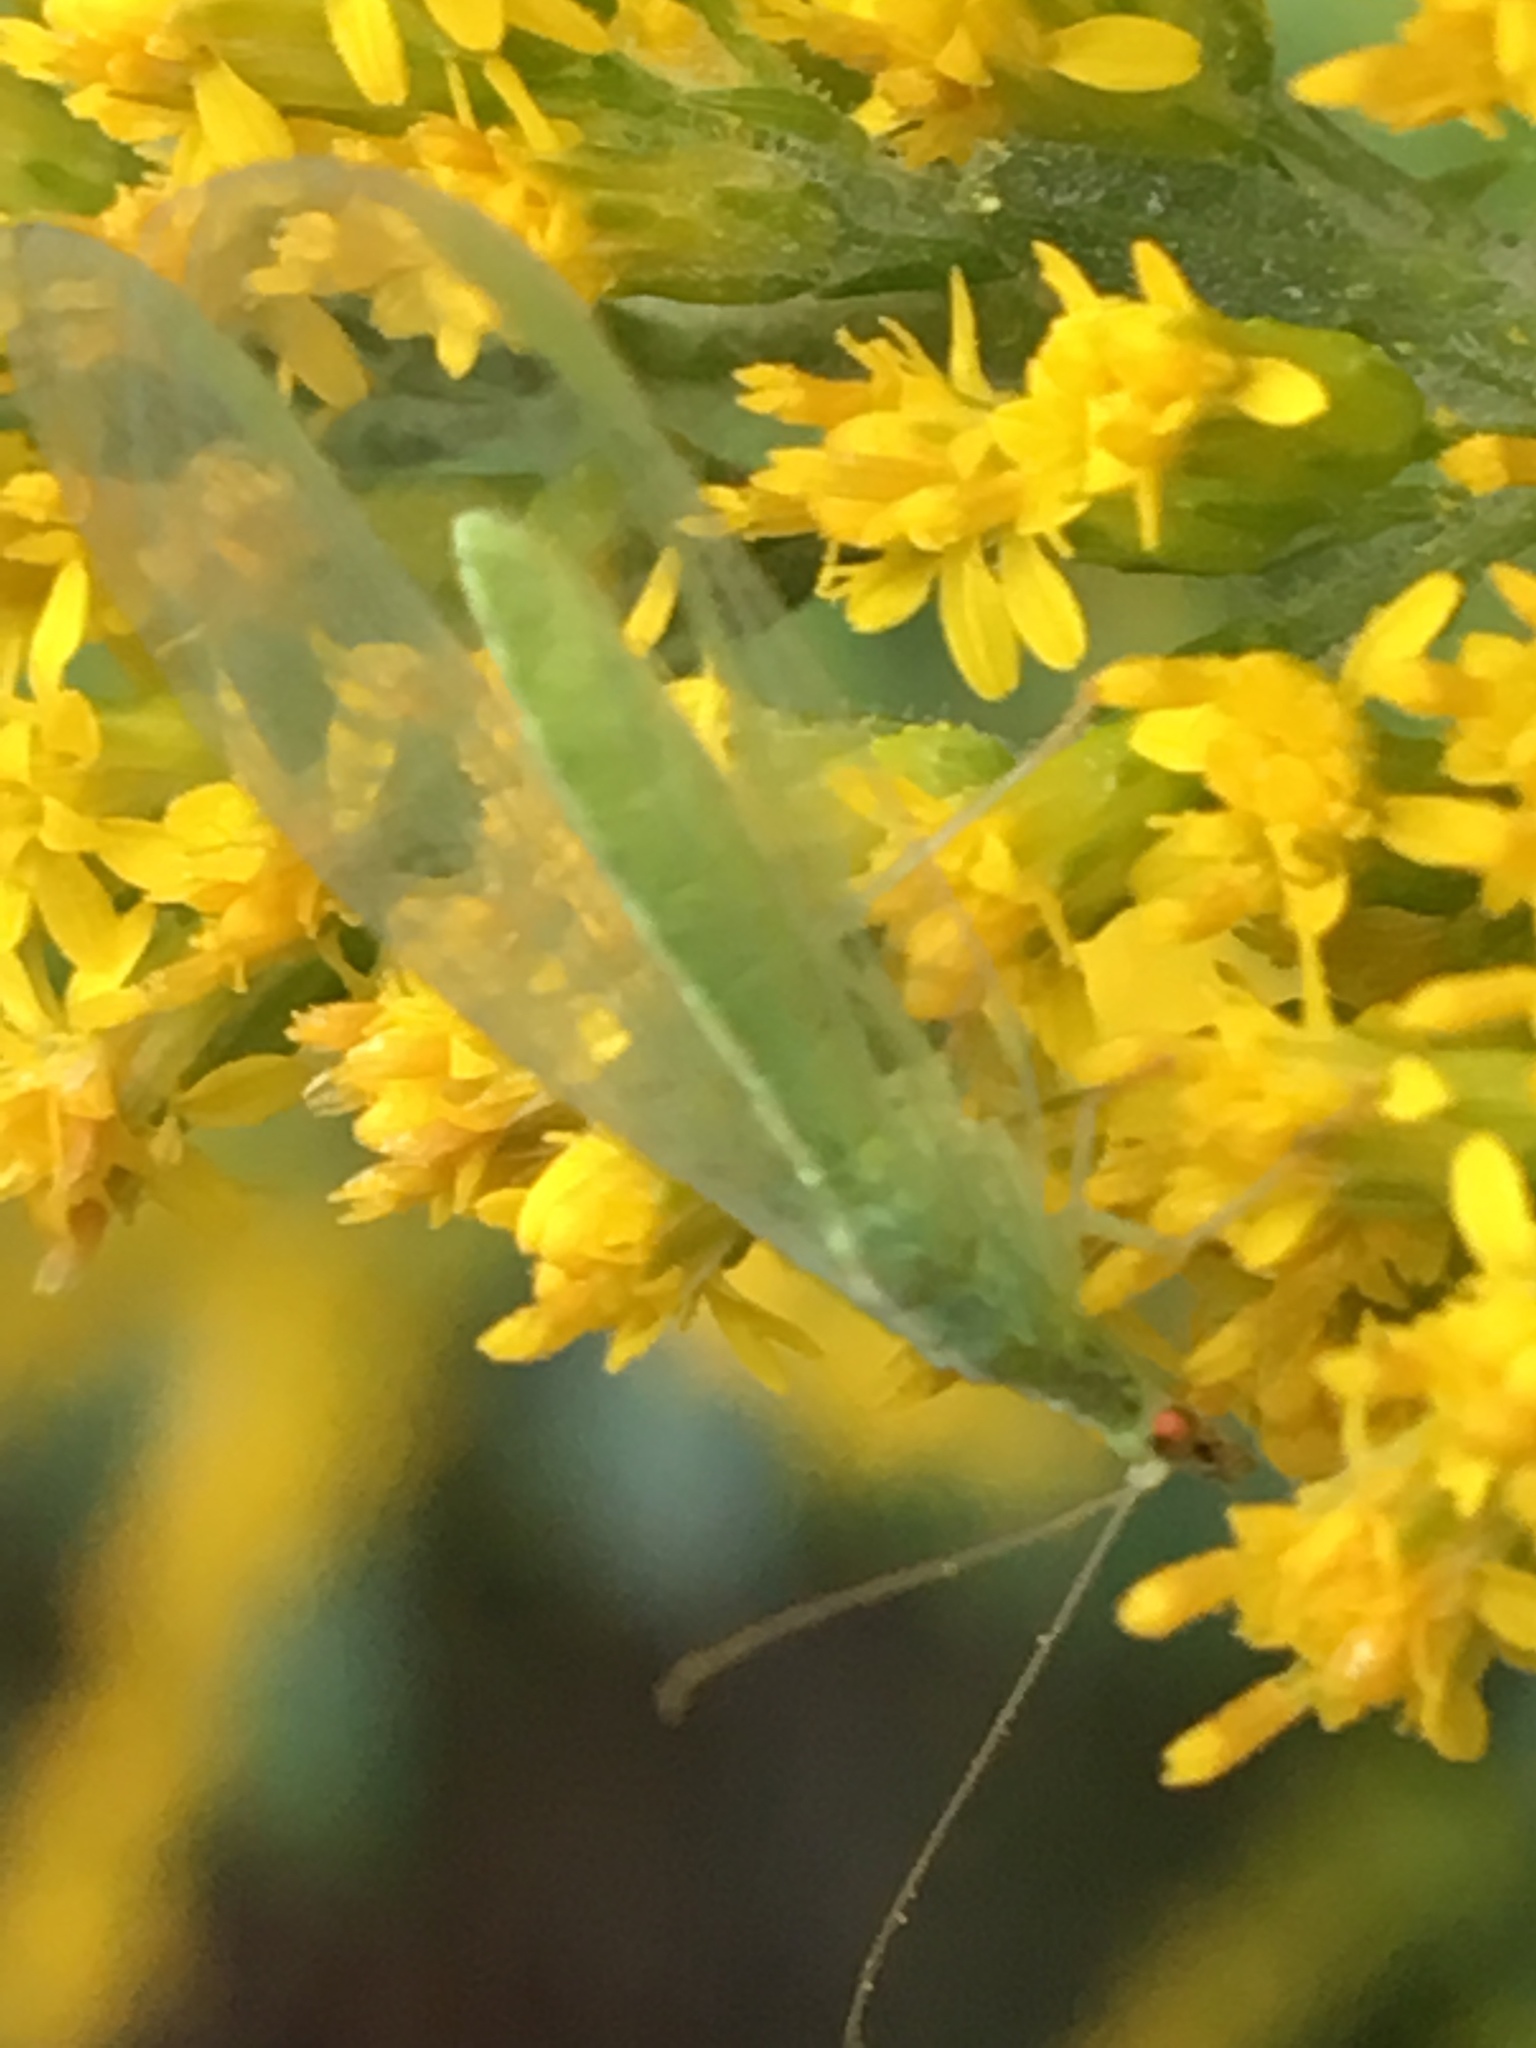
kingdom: Animalia
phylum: Arthropoda
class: Insecta
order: Neuroptera
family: Chrysopidae
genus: Chrysoperla
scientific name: Chrysoperla
